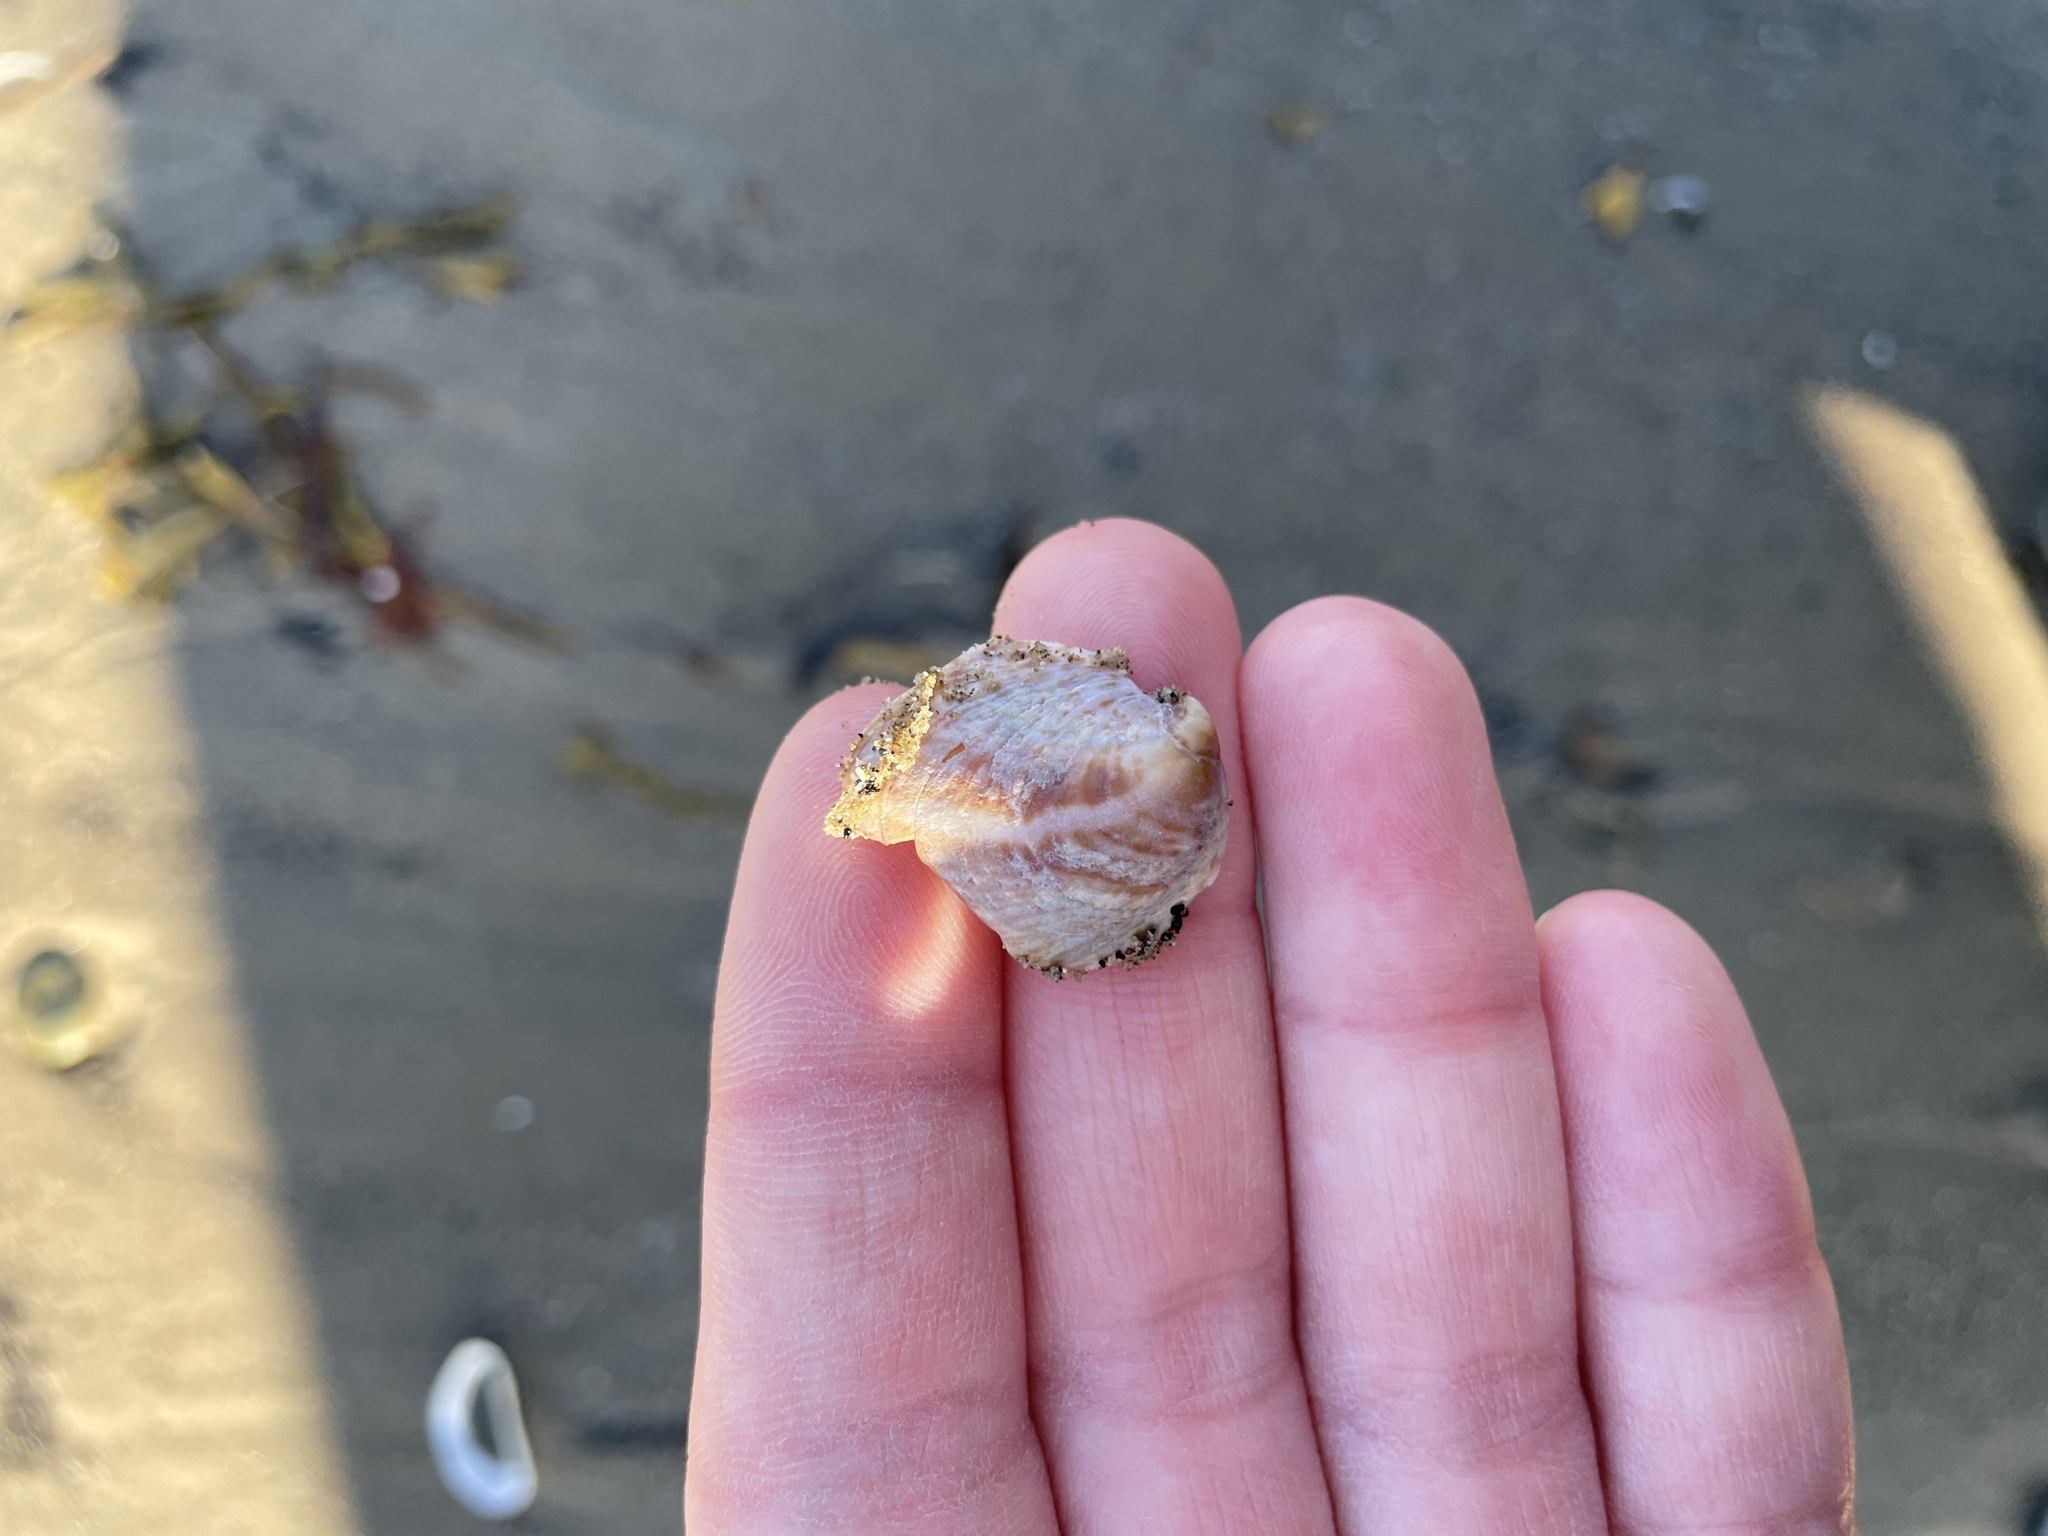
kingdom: Animalia
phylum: Mollusca
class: Gastropoda
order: Littorinimorpha
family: Calyptraeidae
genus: Crepidula
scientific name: Crepidula fornicata
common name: Slipper limpet
